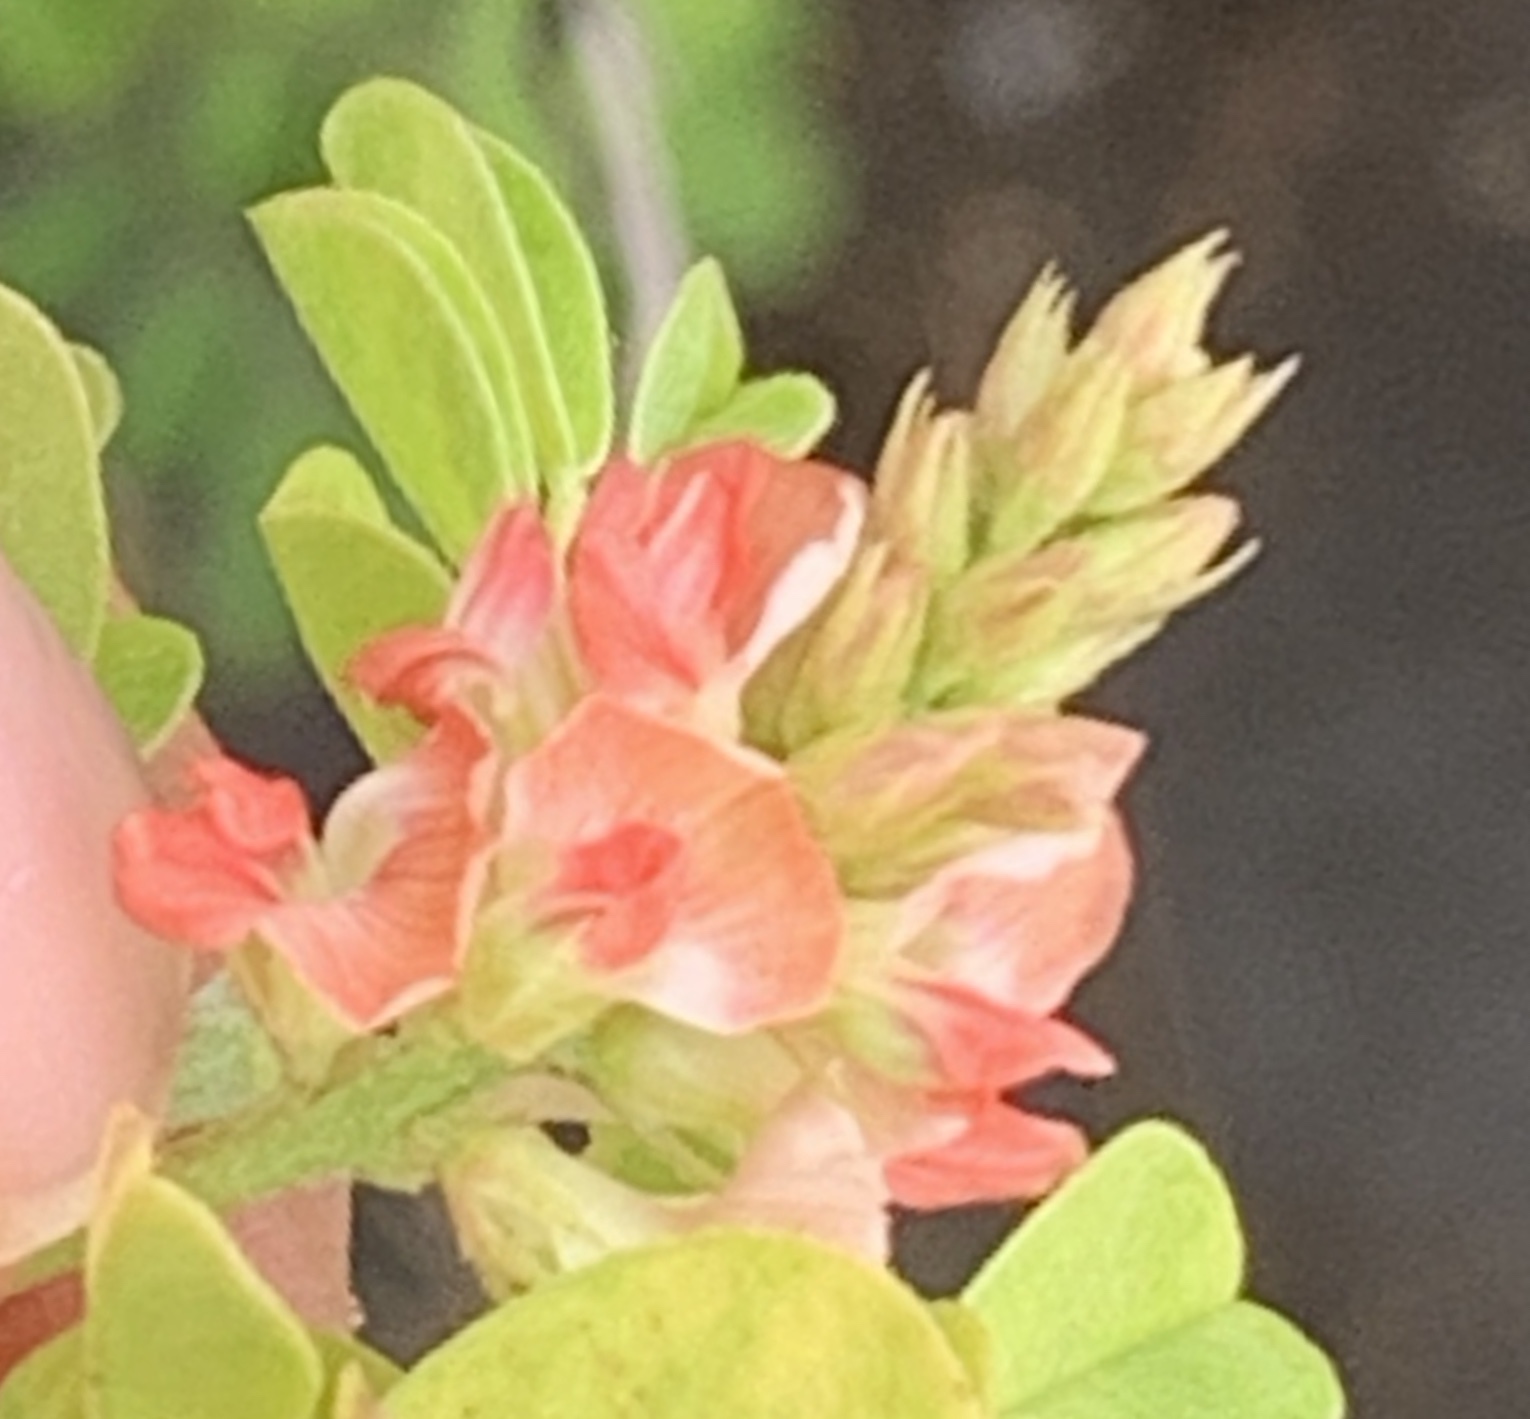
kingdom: Plantae
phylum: Tracheophyta
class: Magnoliopsida
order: Fabales
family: Fabaceae
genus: Indigofera
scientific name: Indigofera spicata
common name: Creeping indigo
